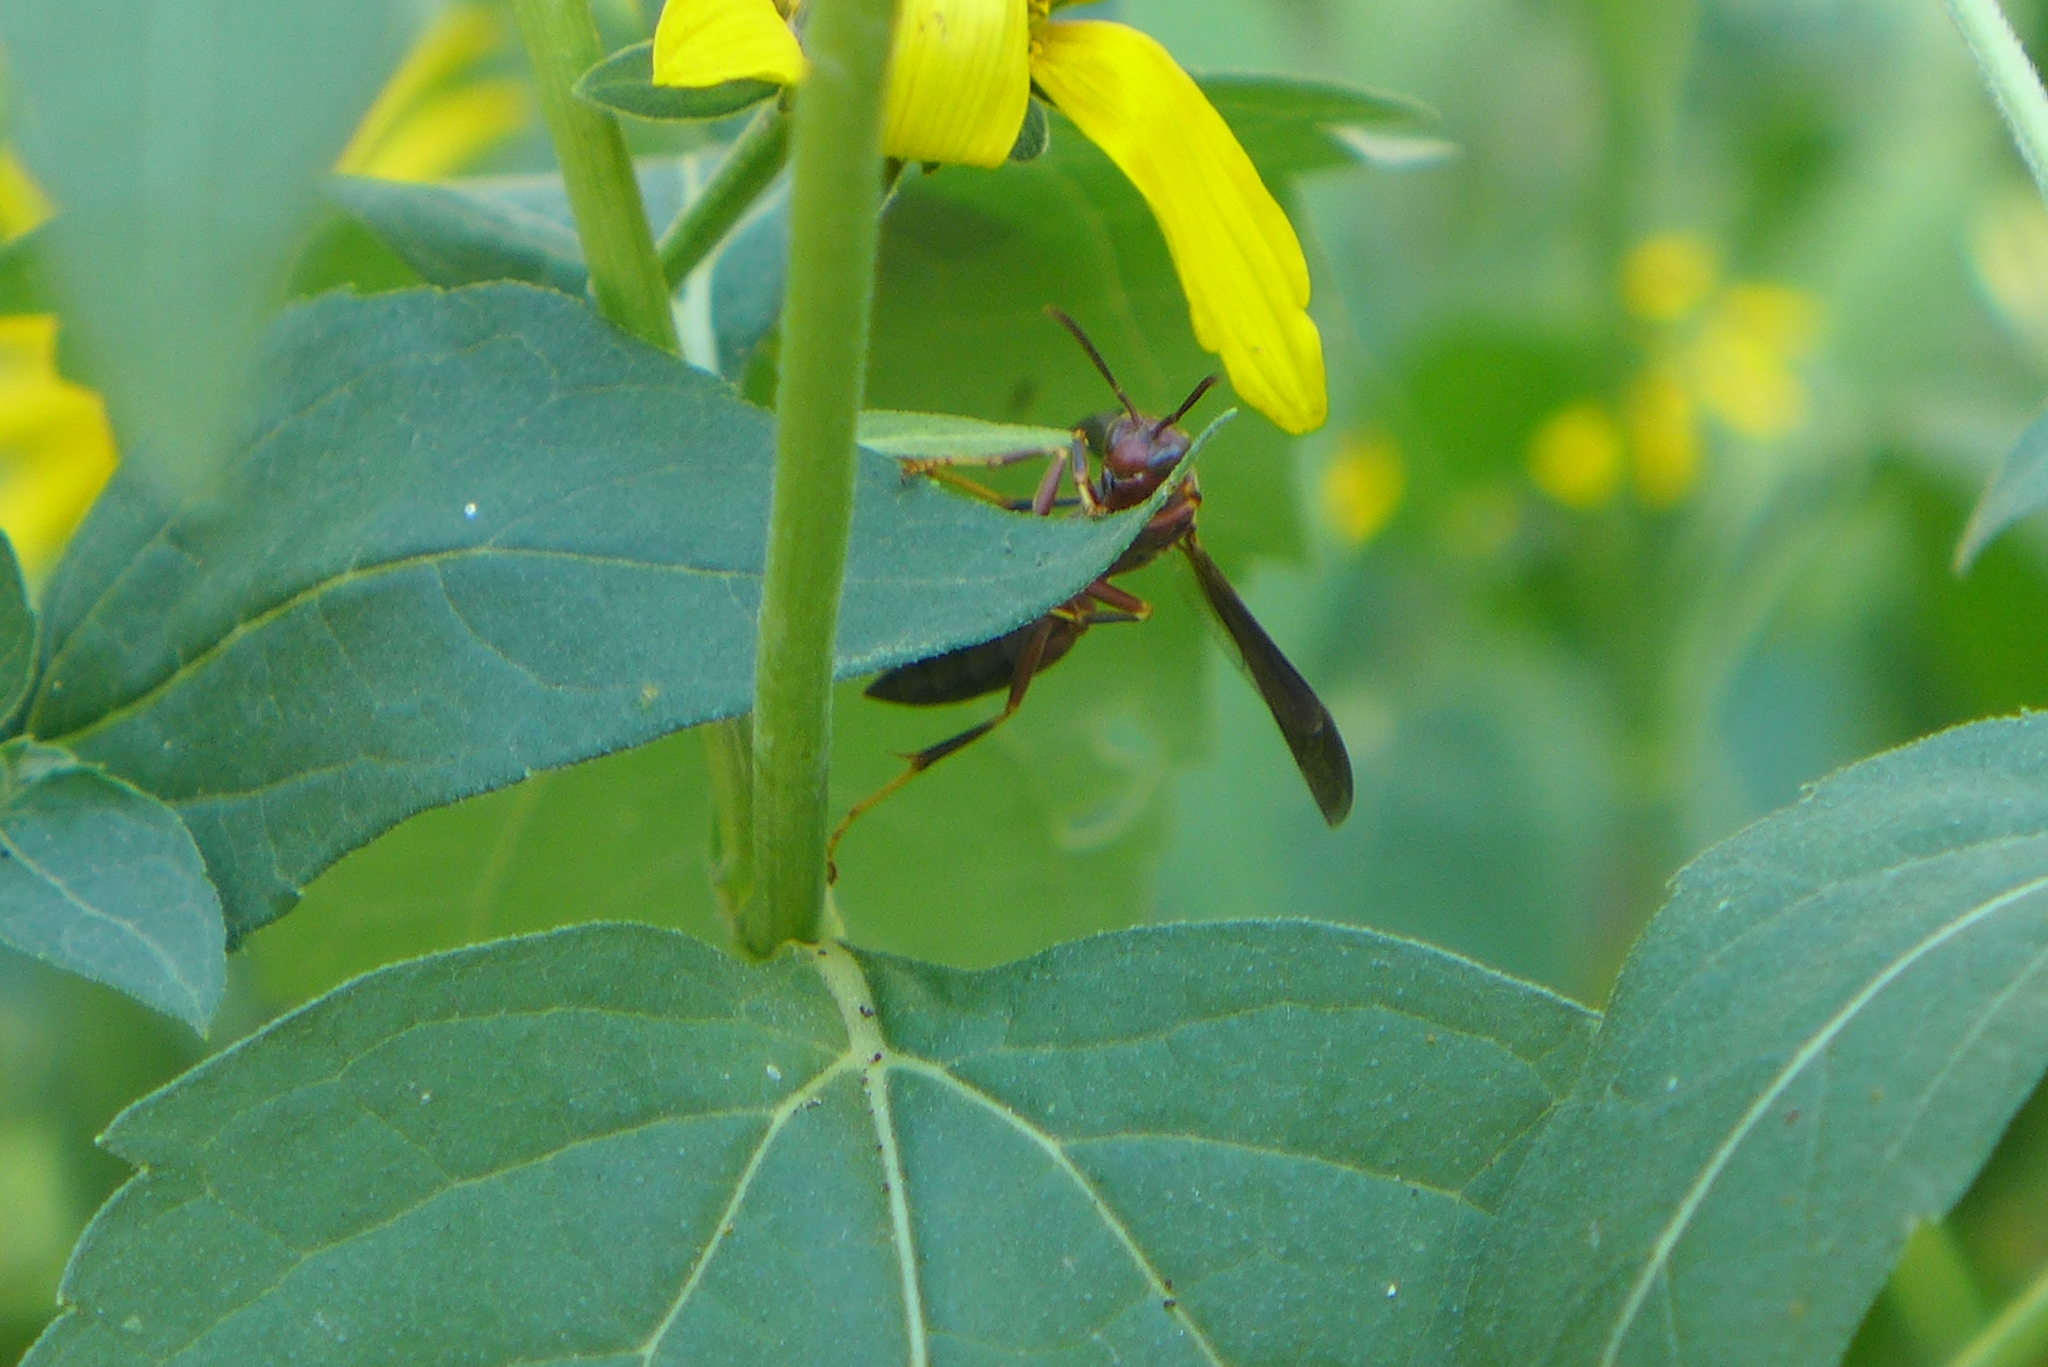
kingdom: Animalia
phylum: Arthropoda
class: Insecta
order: Hymenoptera
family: Vespidae
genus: Fuscopolistes
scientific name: Fuscopolistes
